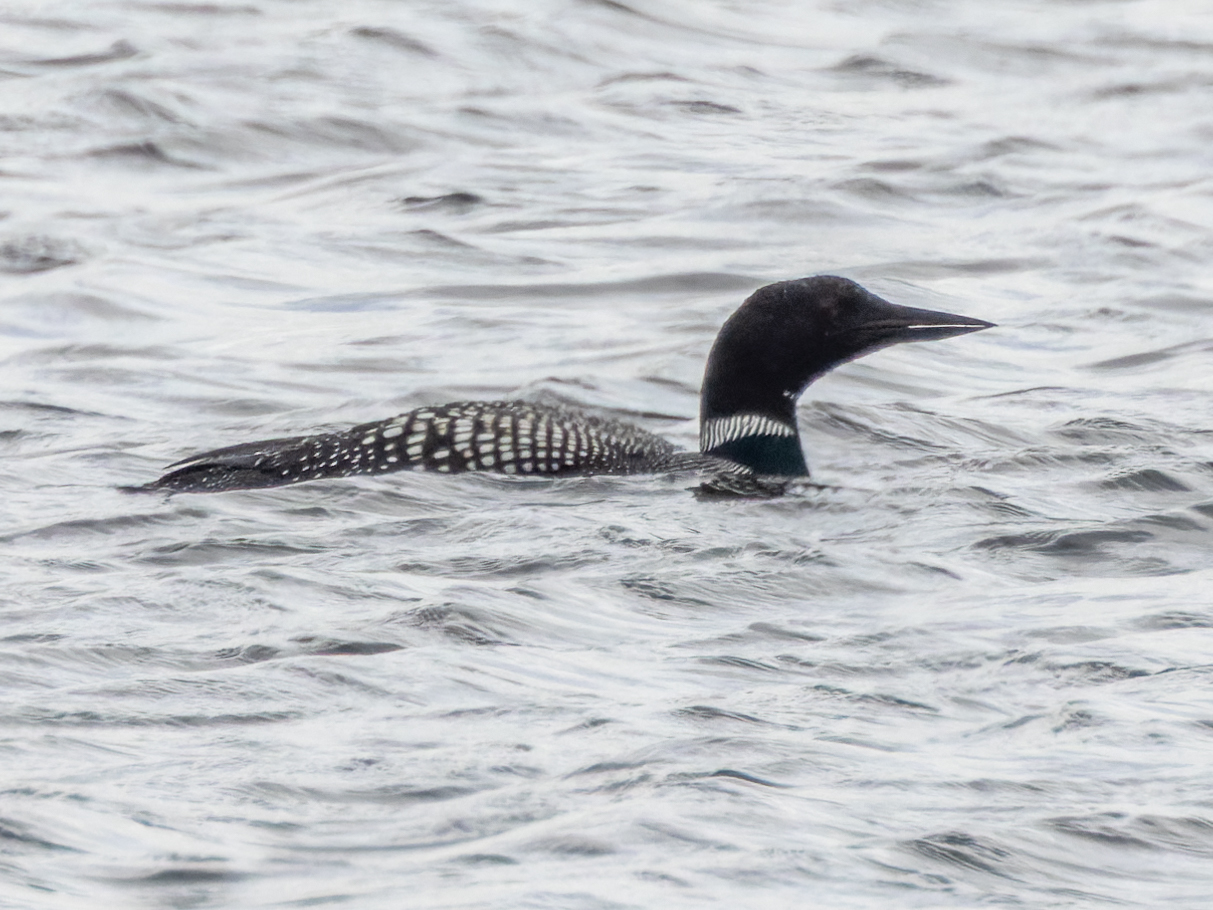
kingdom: Animalia
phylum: Chordata
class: Aves
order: Gaviiformes
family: Gaviidae
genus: Gavia
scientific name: Gavia immer
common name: Common loon
